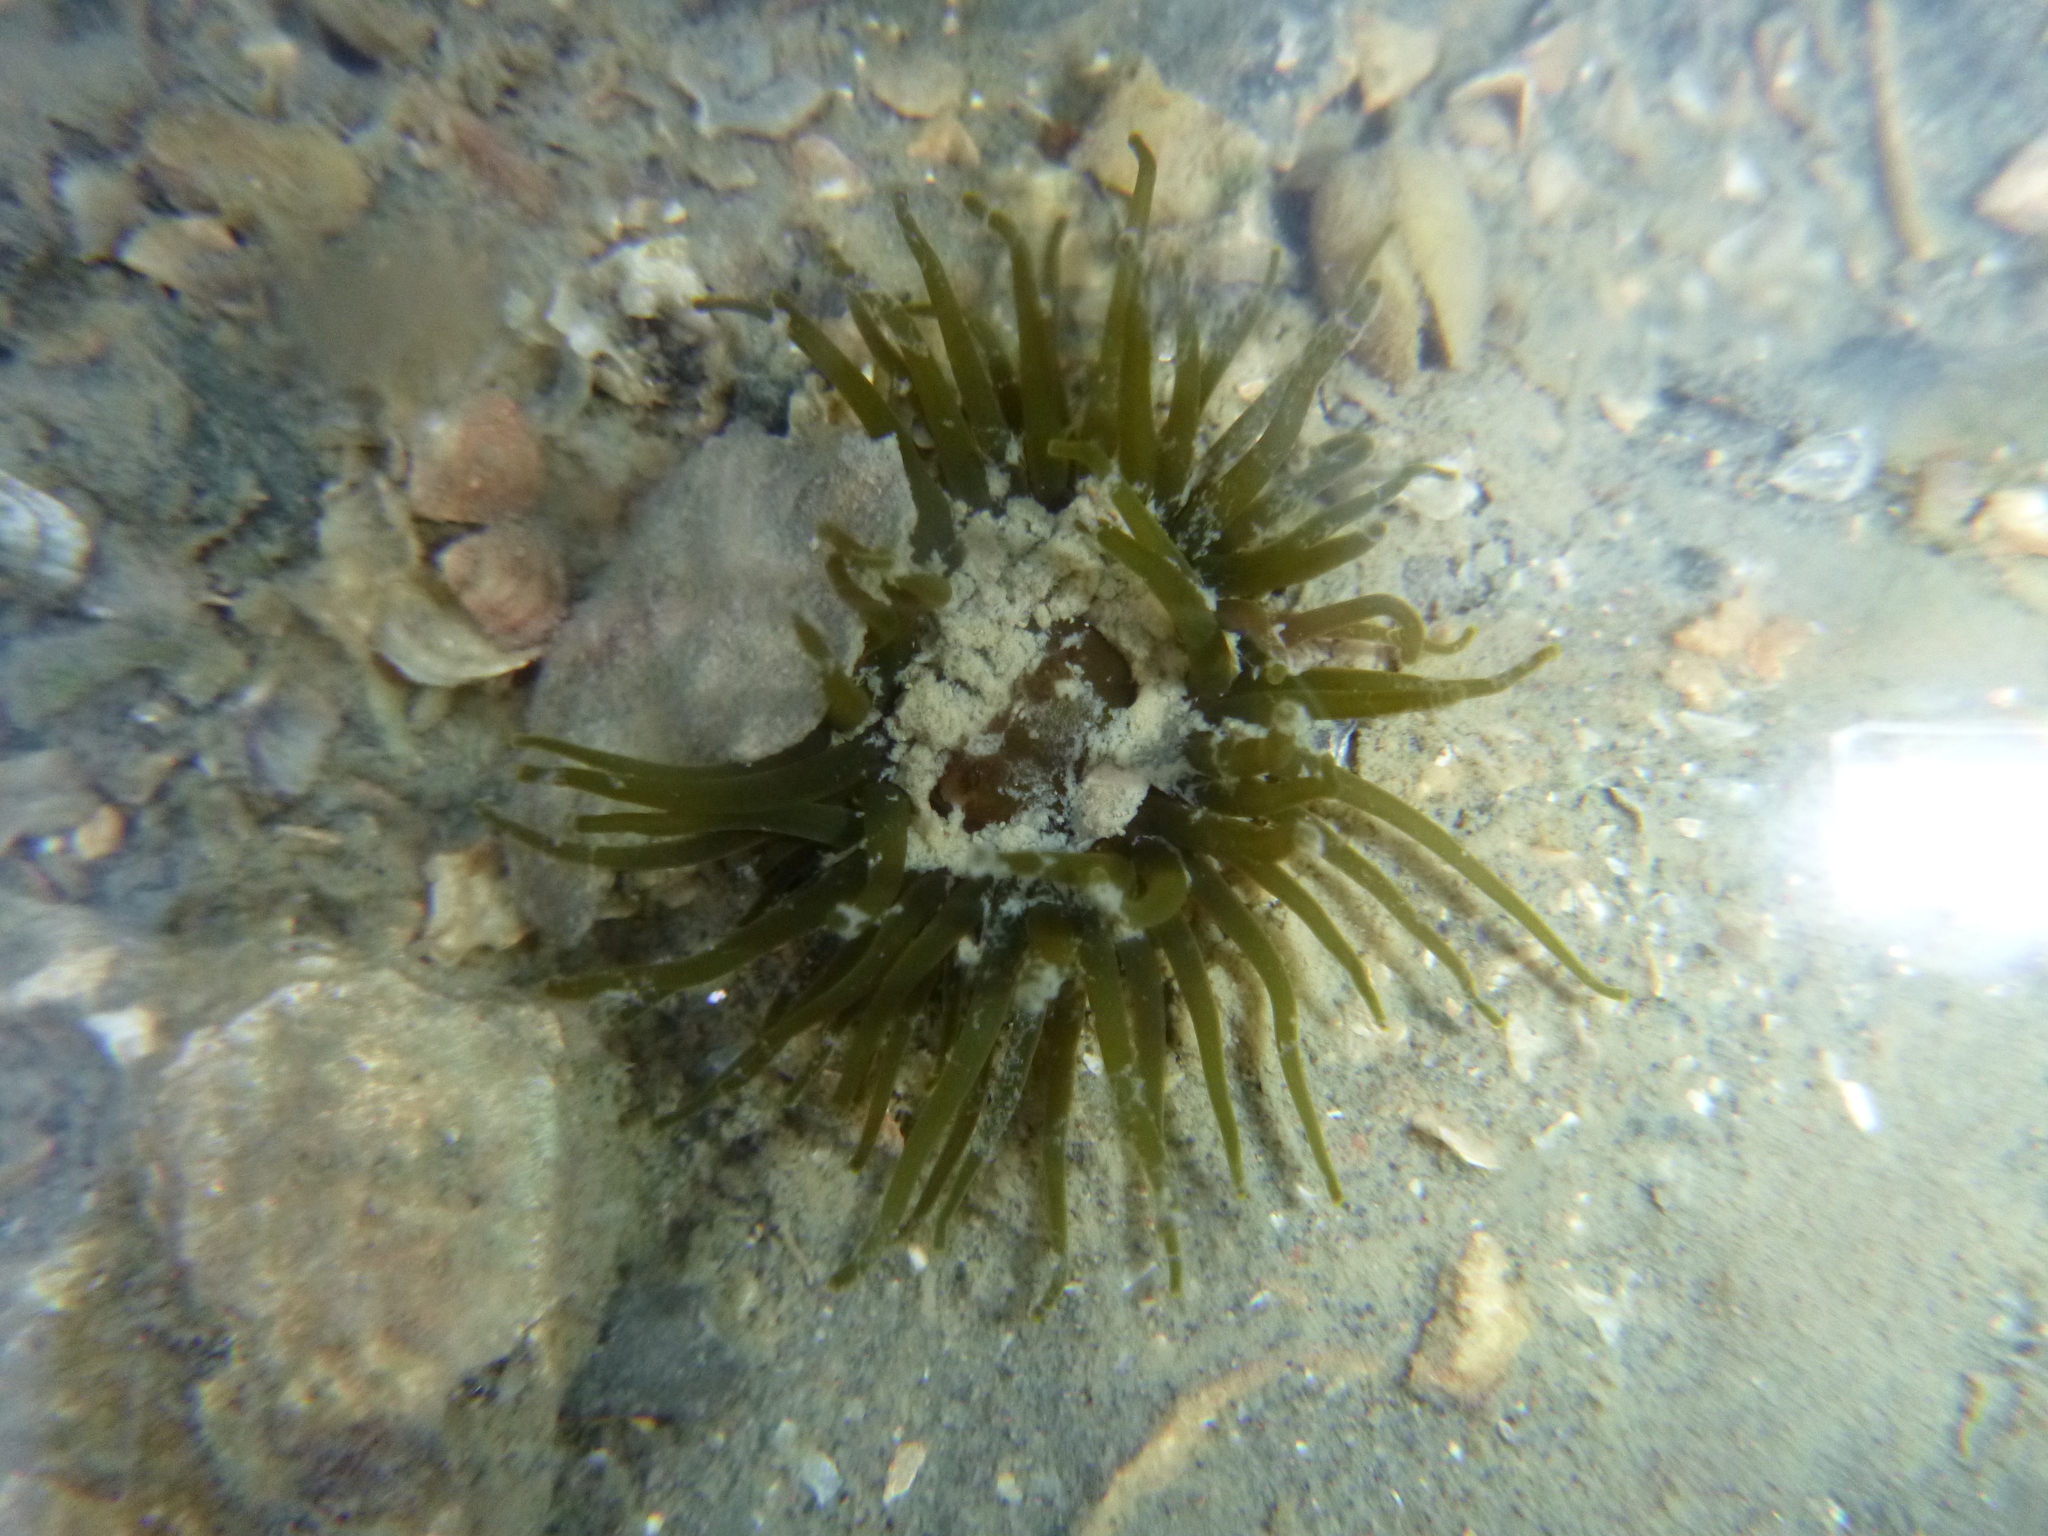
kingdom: Animalia
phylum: Cnidaria
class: Anthozoa
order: Actiniaria
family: Actiniidae
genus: Isactinia
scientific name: Isactinia olivacea
